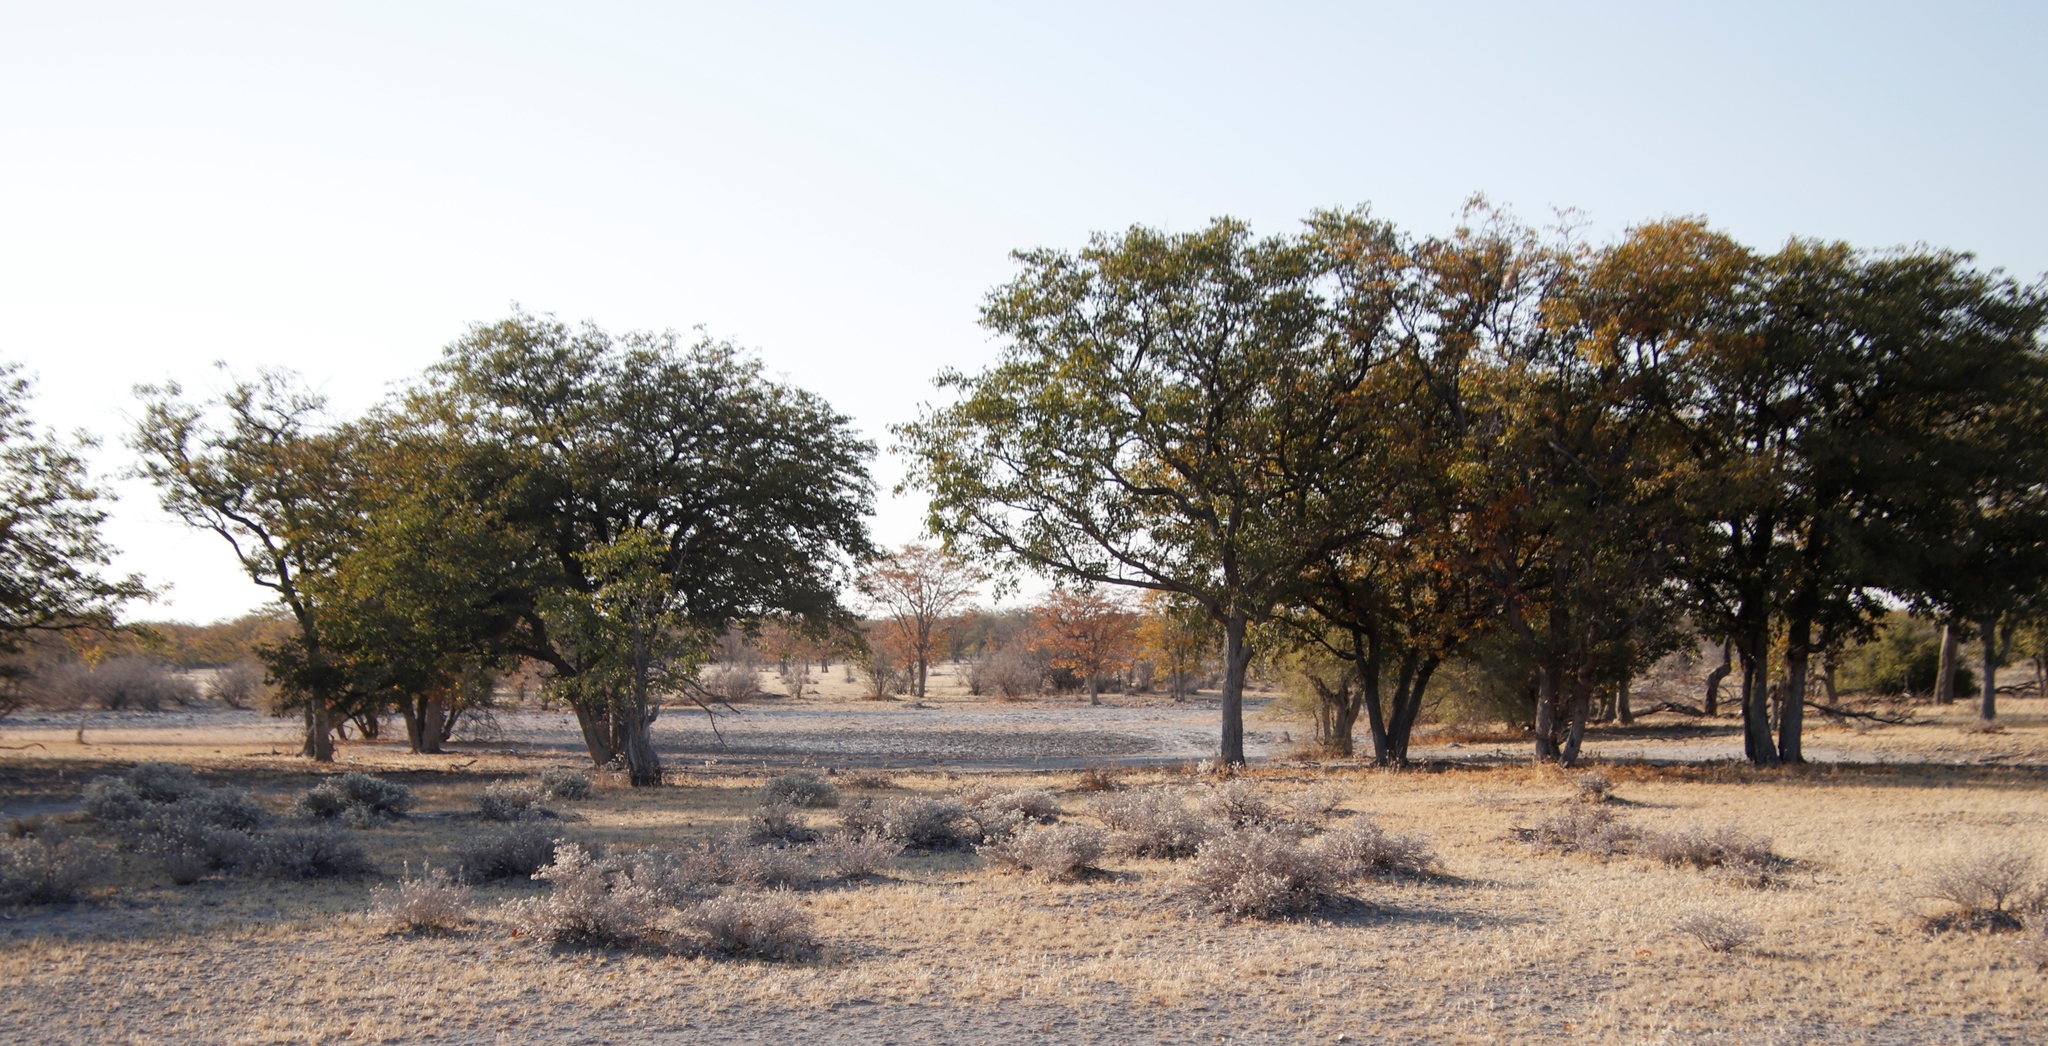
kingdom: Plantae
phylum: Tracheophyta
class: Magnoliopsida
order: Fabales
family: Fabaceae
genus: Colophospermum
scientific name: Colophospermum mopane
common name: Mopane
